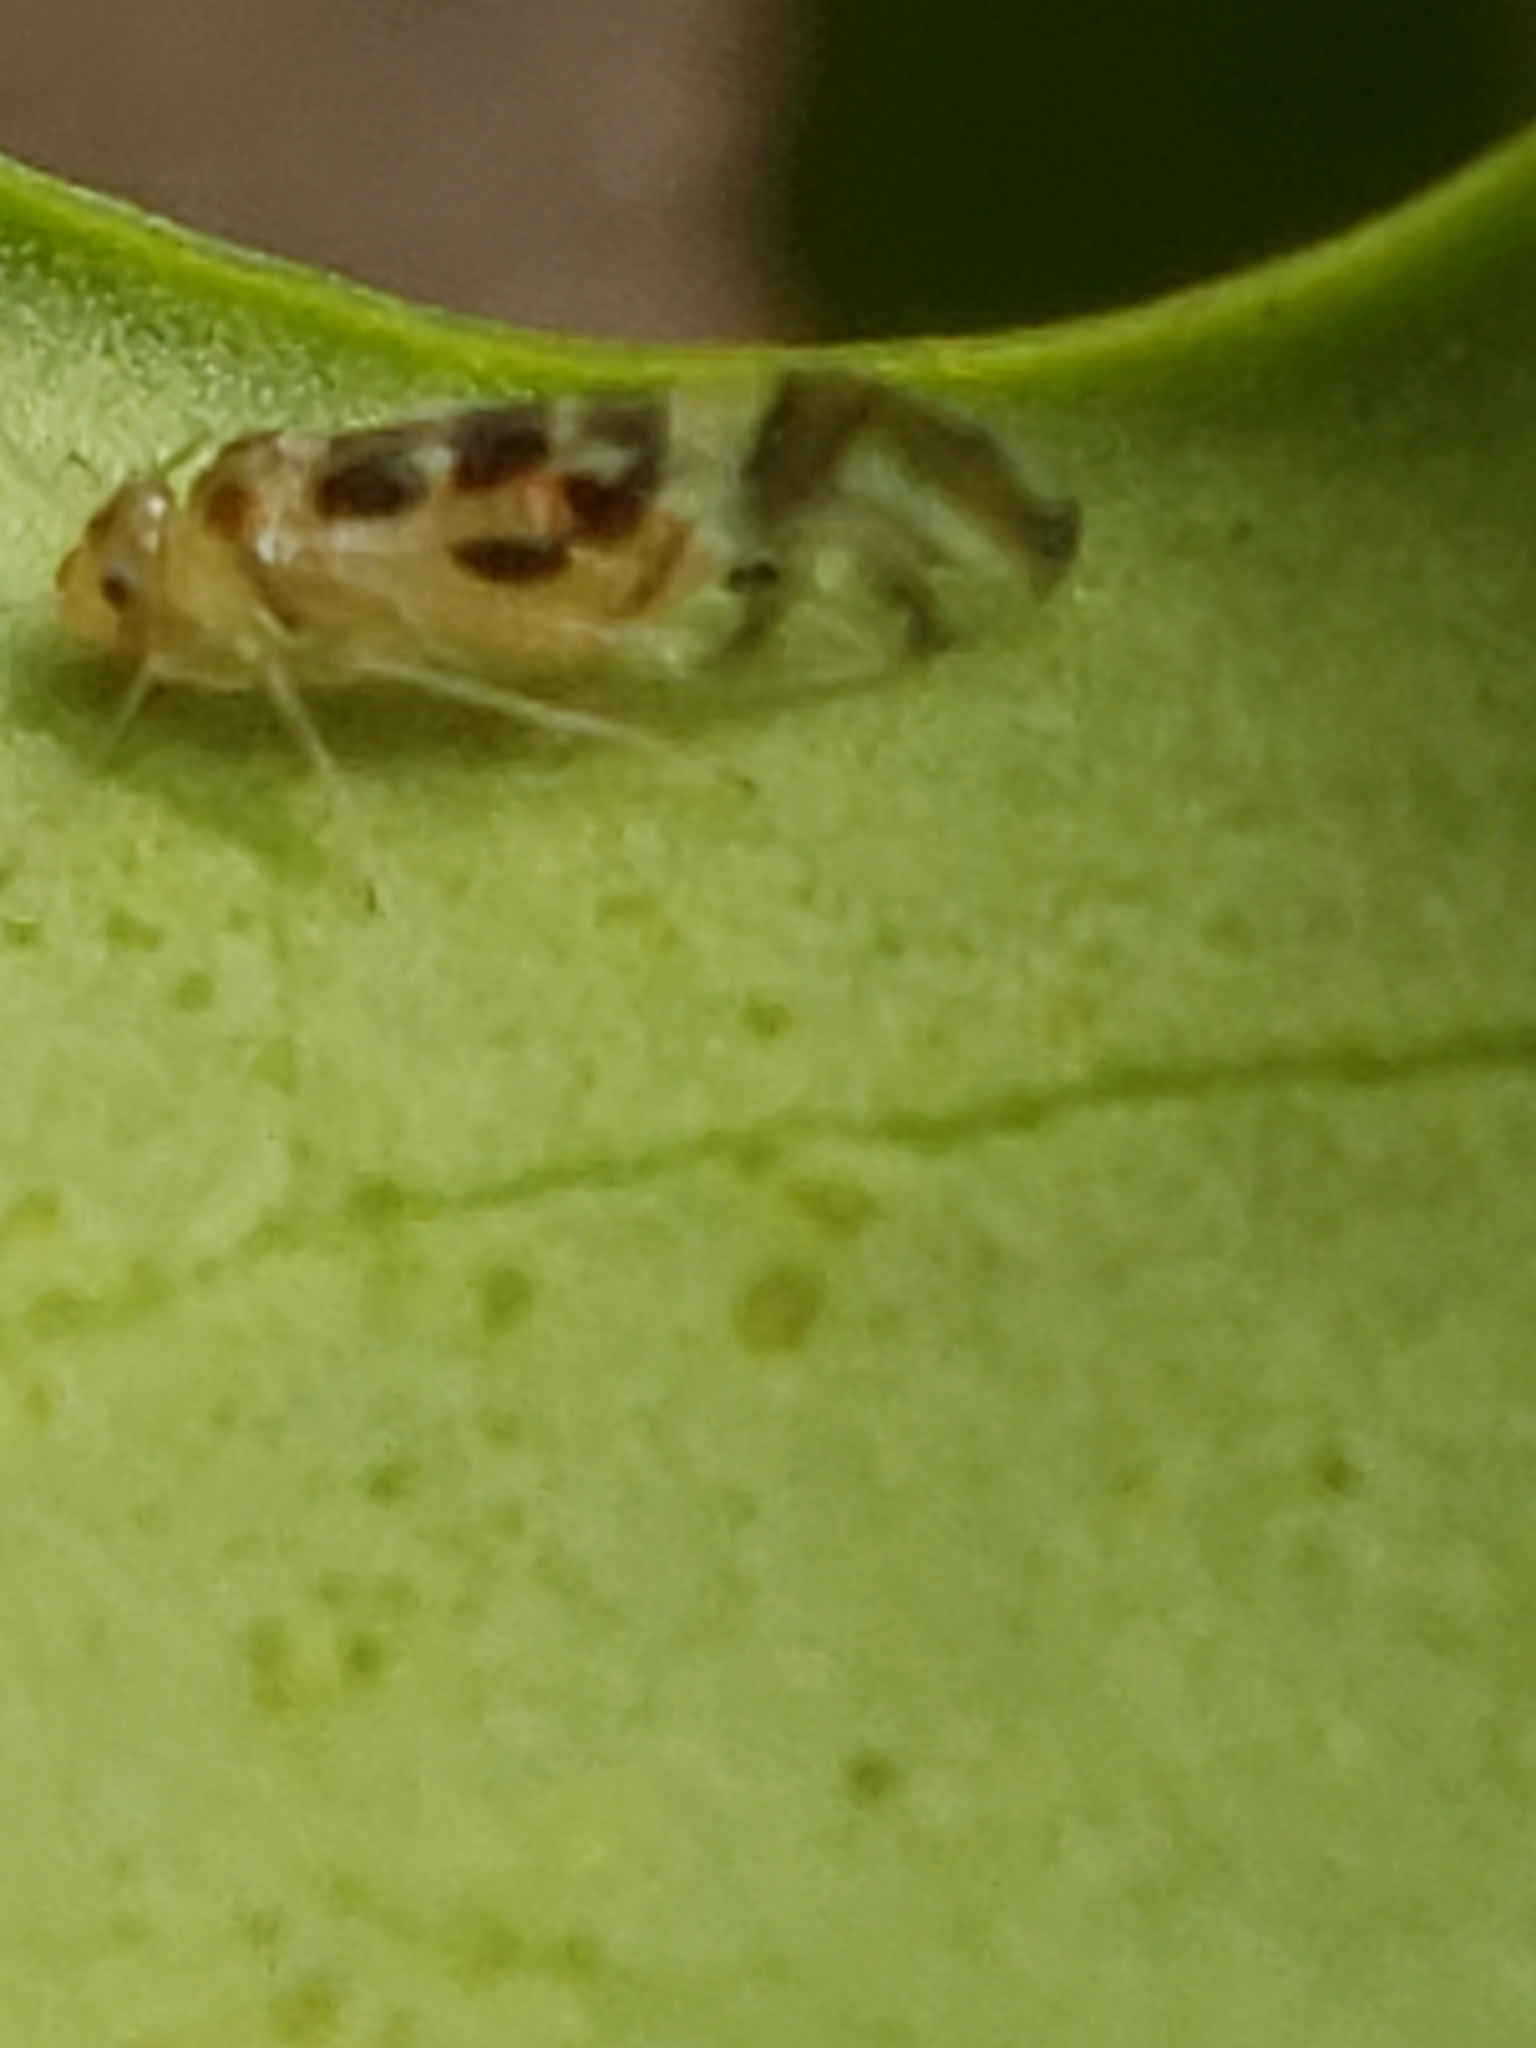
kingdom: Animalia
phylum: Arthropoda
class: Insecta
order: Psocodea
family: Stenopsocidae
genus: Graphopsocus
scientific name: Graphopsocus cruciatus
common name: Lizard bark louse
